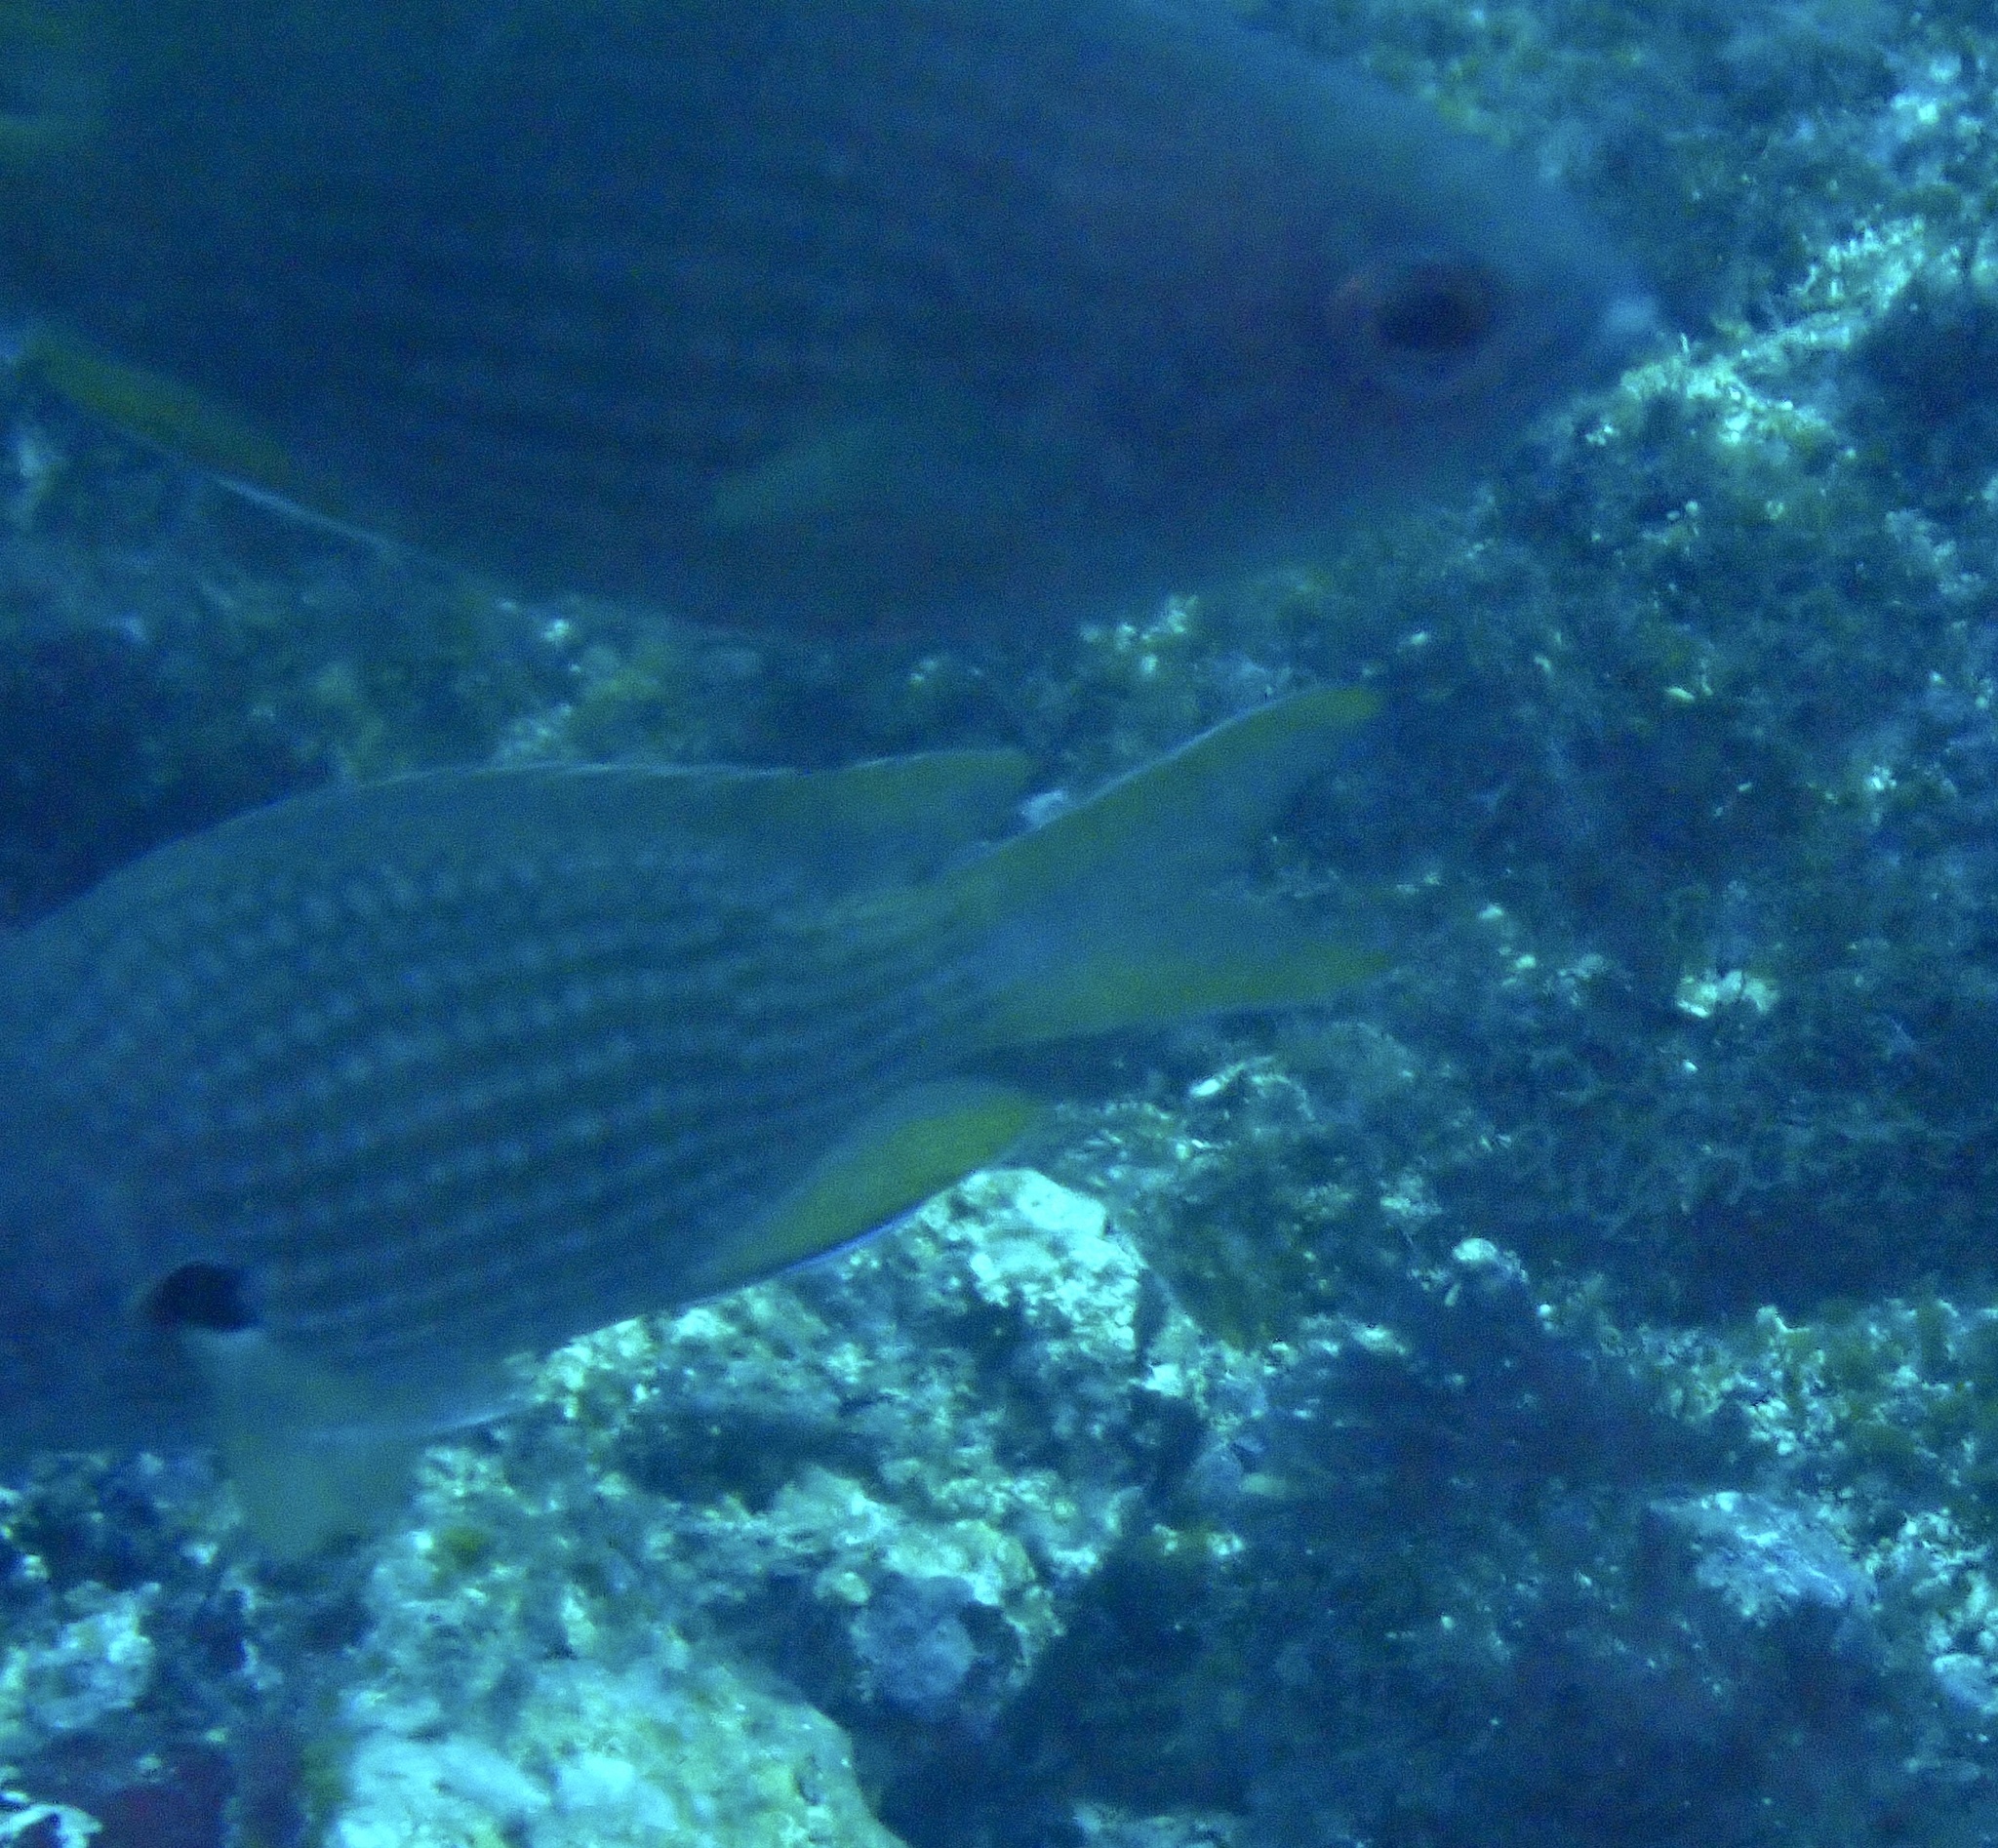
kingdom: Animalia
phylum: Chordata
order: Perciformes
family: Pomacentridae
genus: Chromis
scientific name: Chromis lubbocki
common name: Lubbock's chromis
